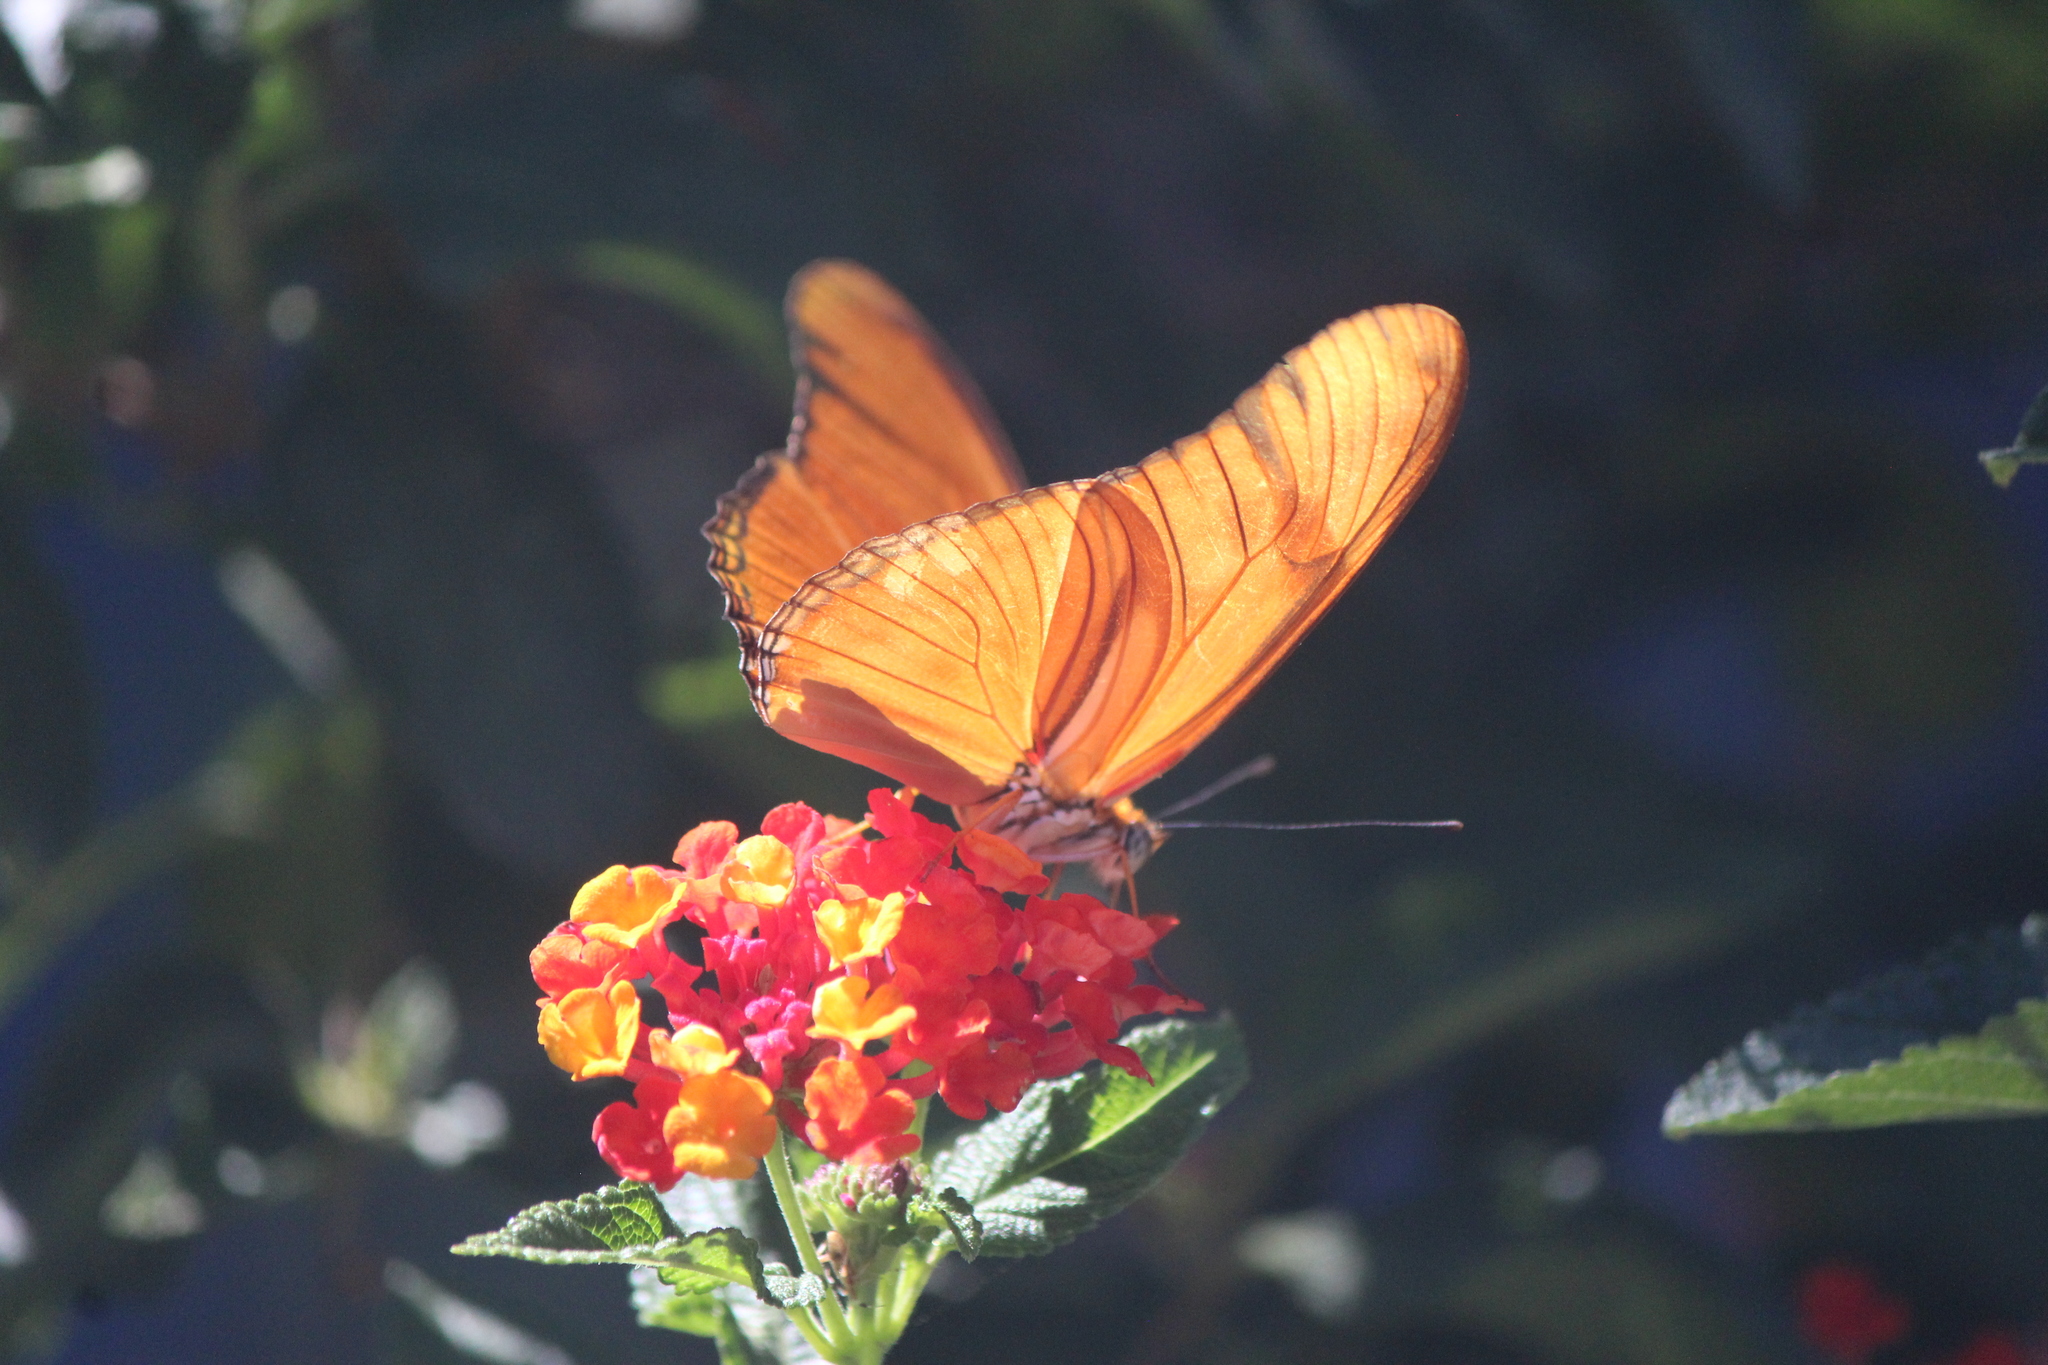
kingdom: Animalia
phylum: Arthropoda
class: Insecta
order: Lepidoptera
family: Nymphalidae
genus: Dryas
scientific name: Dryas iulia
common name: Flambeau
